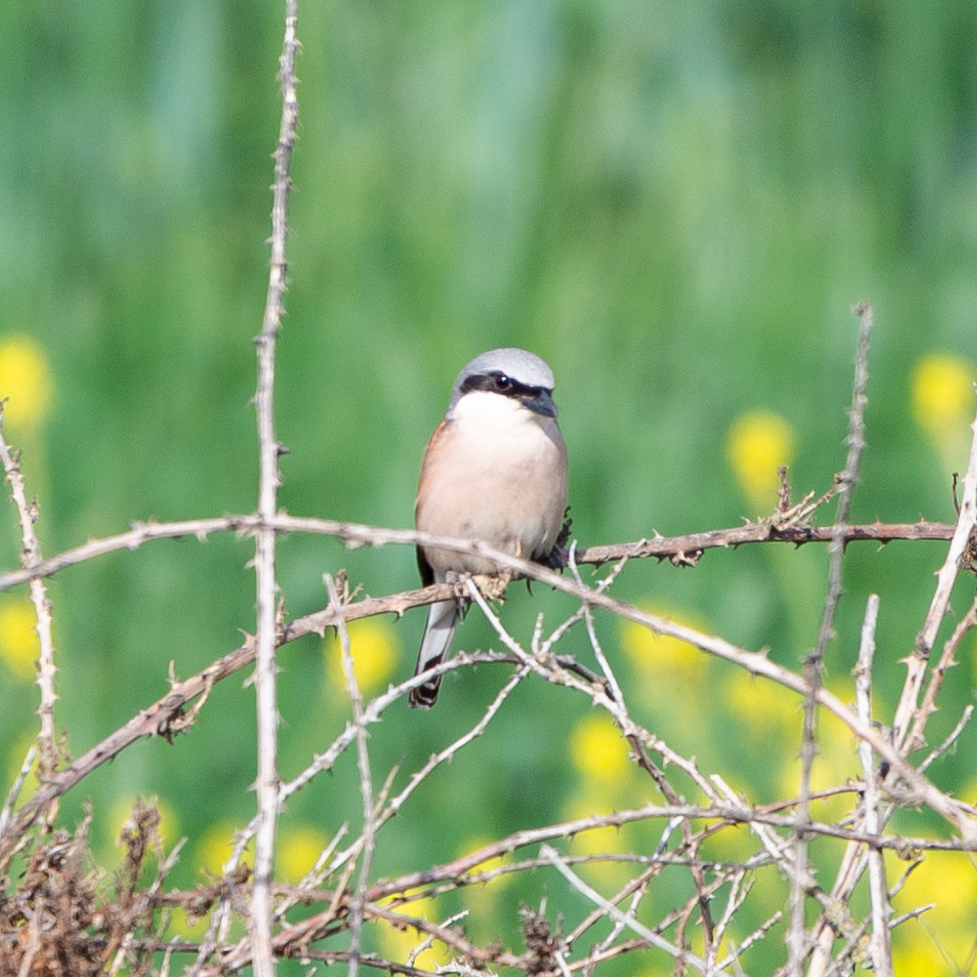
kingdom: Animalia
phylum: Chordata
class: Aves
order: Passeriformes
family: Laniidae
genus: Lanius
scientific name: Lanius collurio
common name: Red-backed shrike
